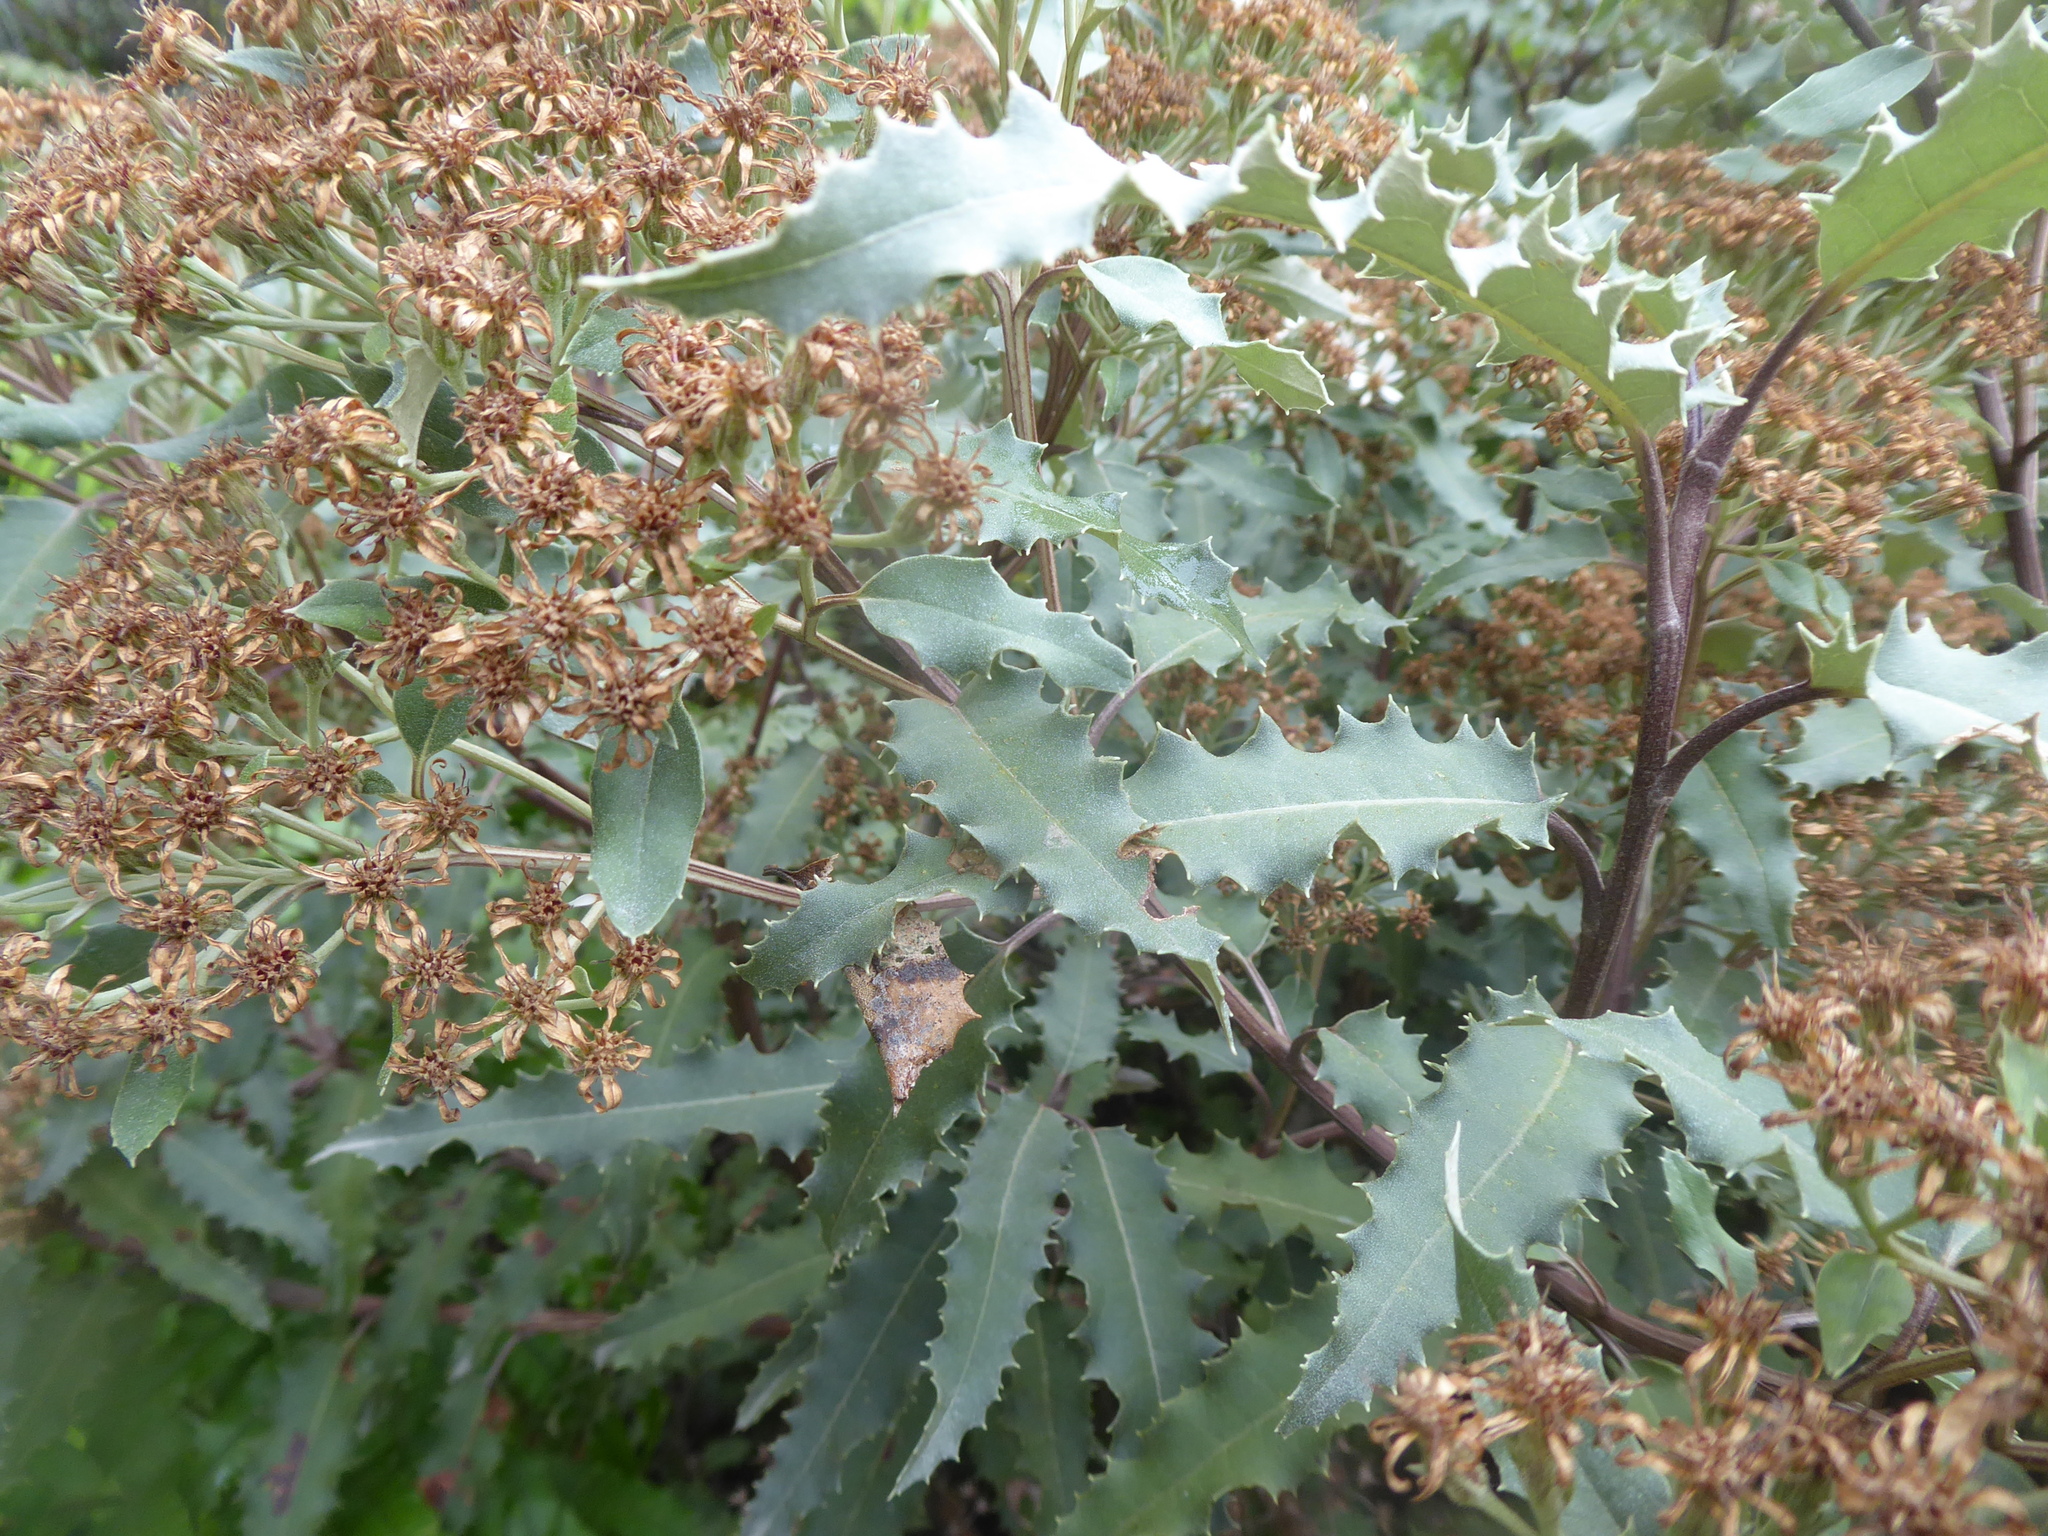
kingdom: Plantae
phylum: Tracheophyta
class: Magnoliopsida
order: Asterales
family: Asteraceae
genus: Olearia
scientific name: Olearia ilicifolia
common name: Maori-holly
